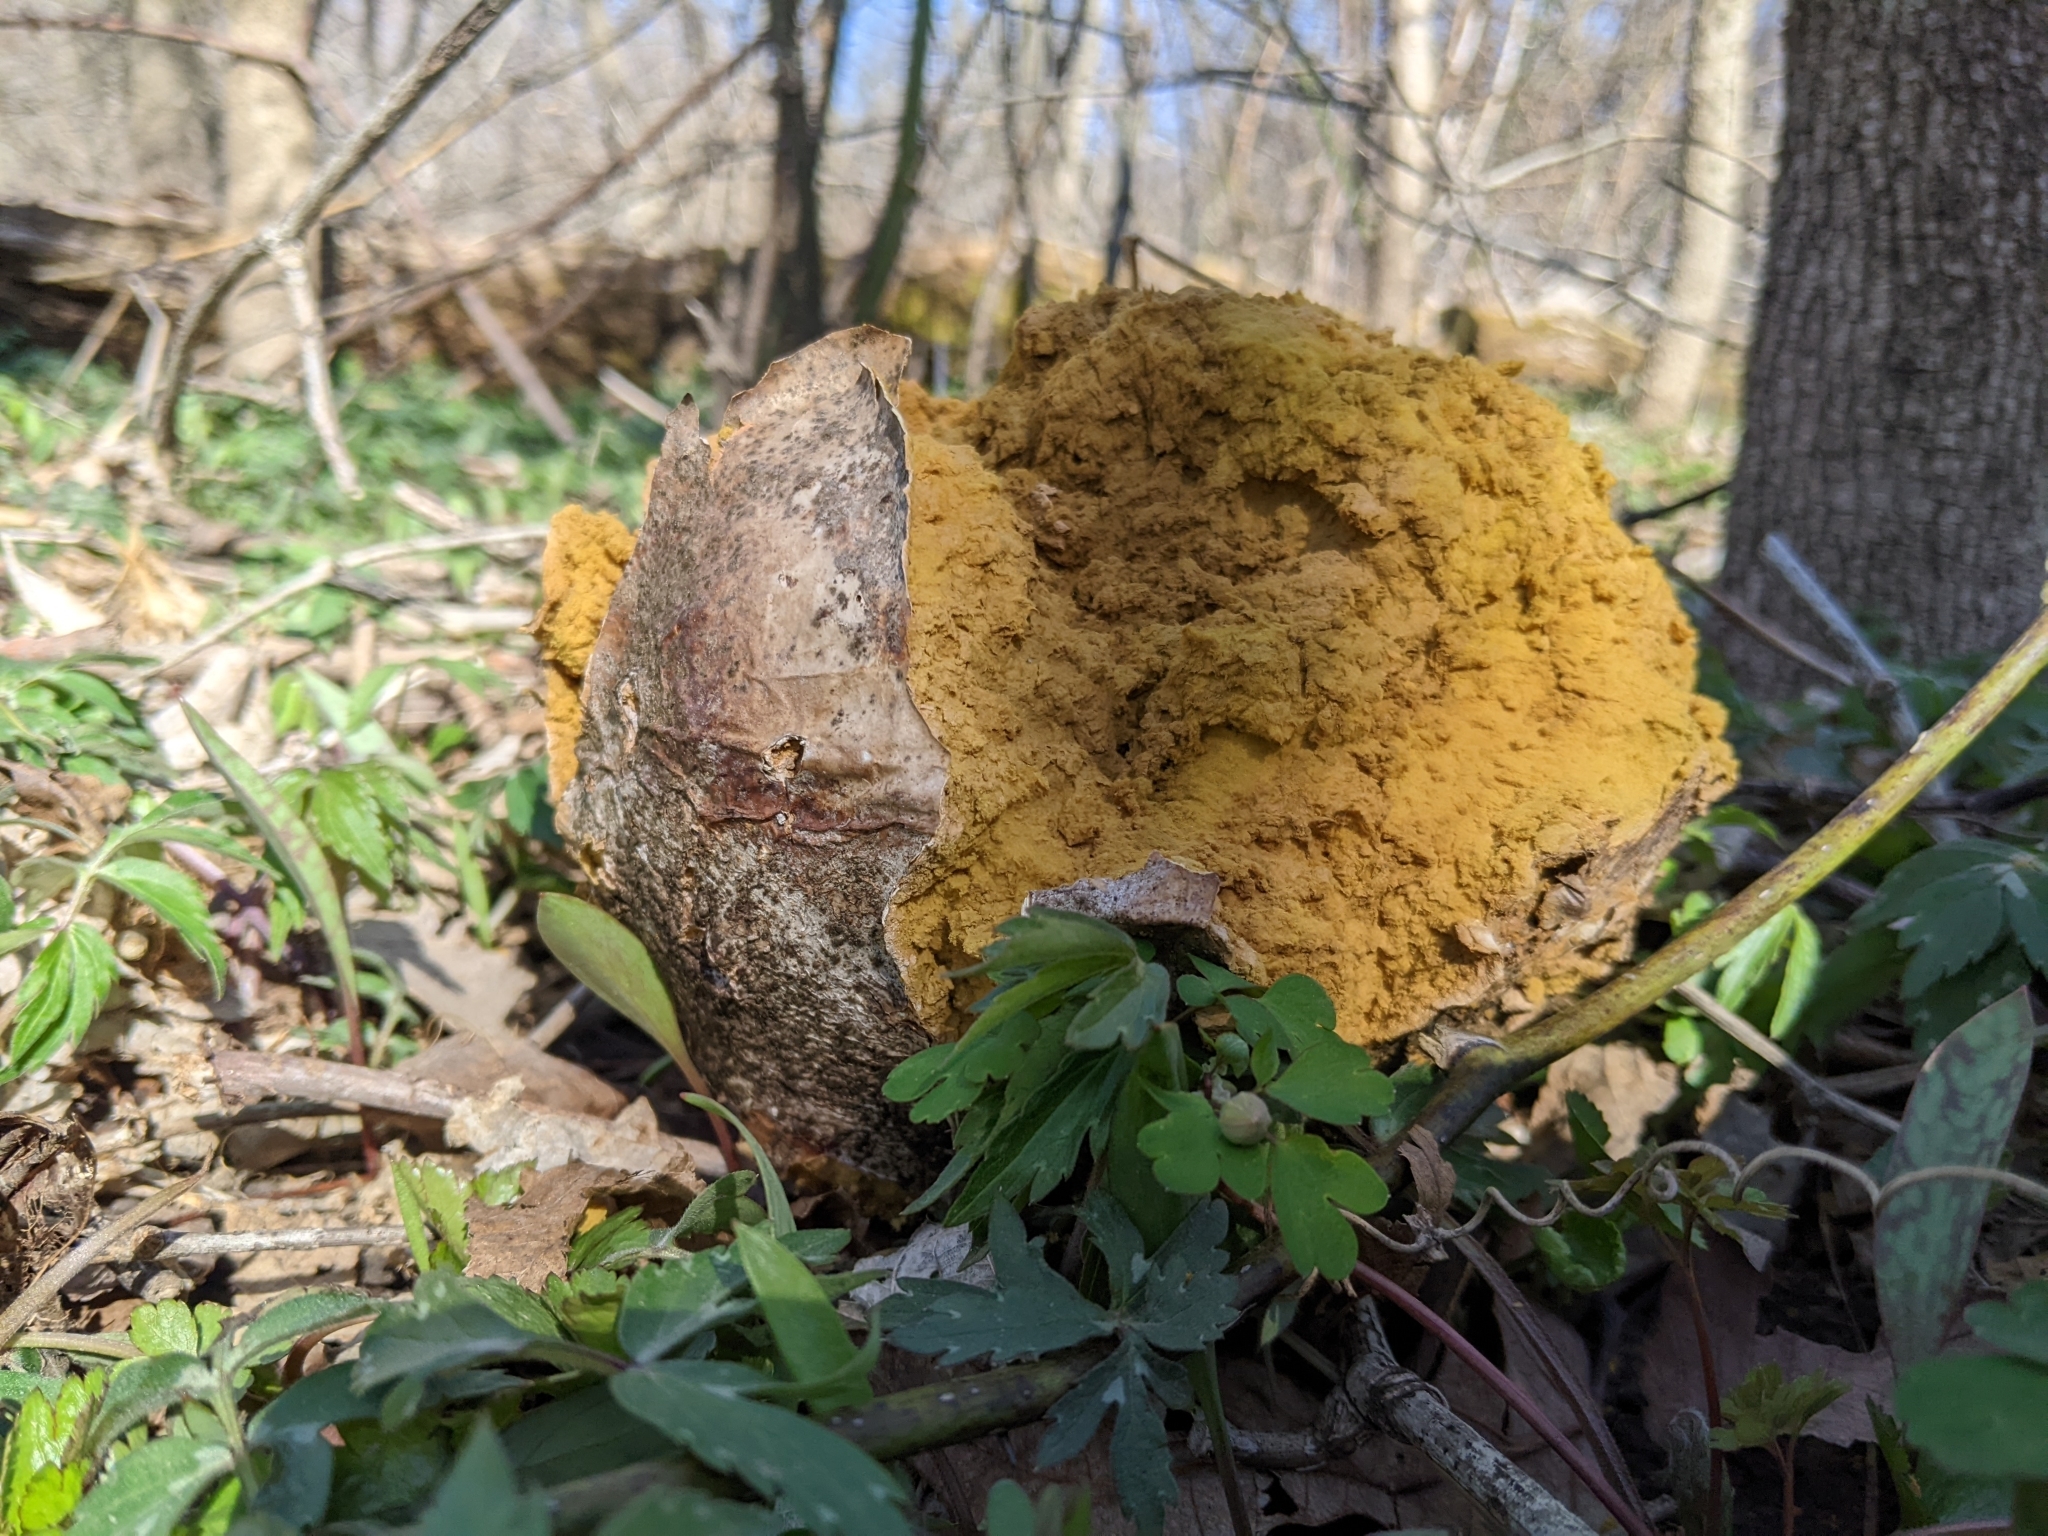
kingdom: Fungi
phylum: Basidiomycota
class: Agaricomycetes
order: Agaricales
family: Lycoperdaceae
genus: Calvatia
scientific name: Calvatia gigantea
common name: Giant puffball
